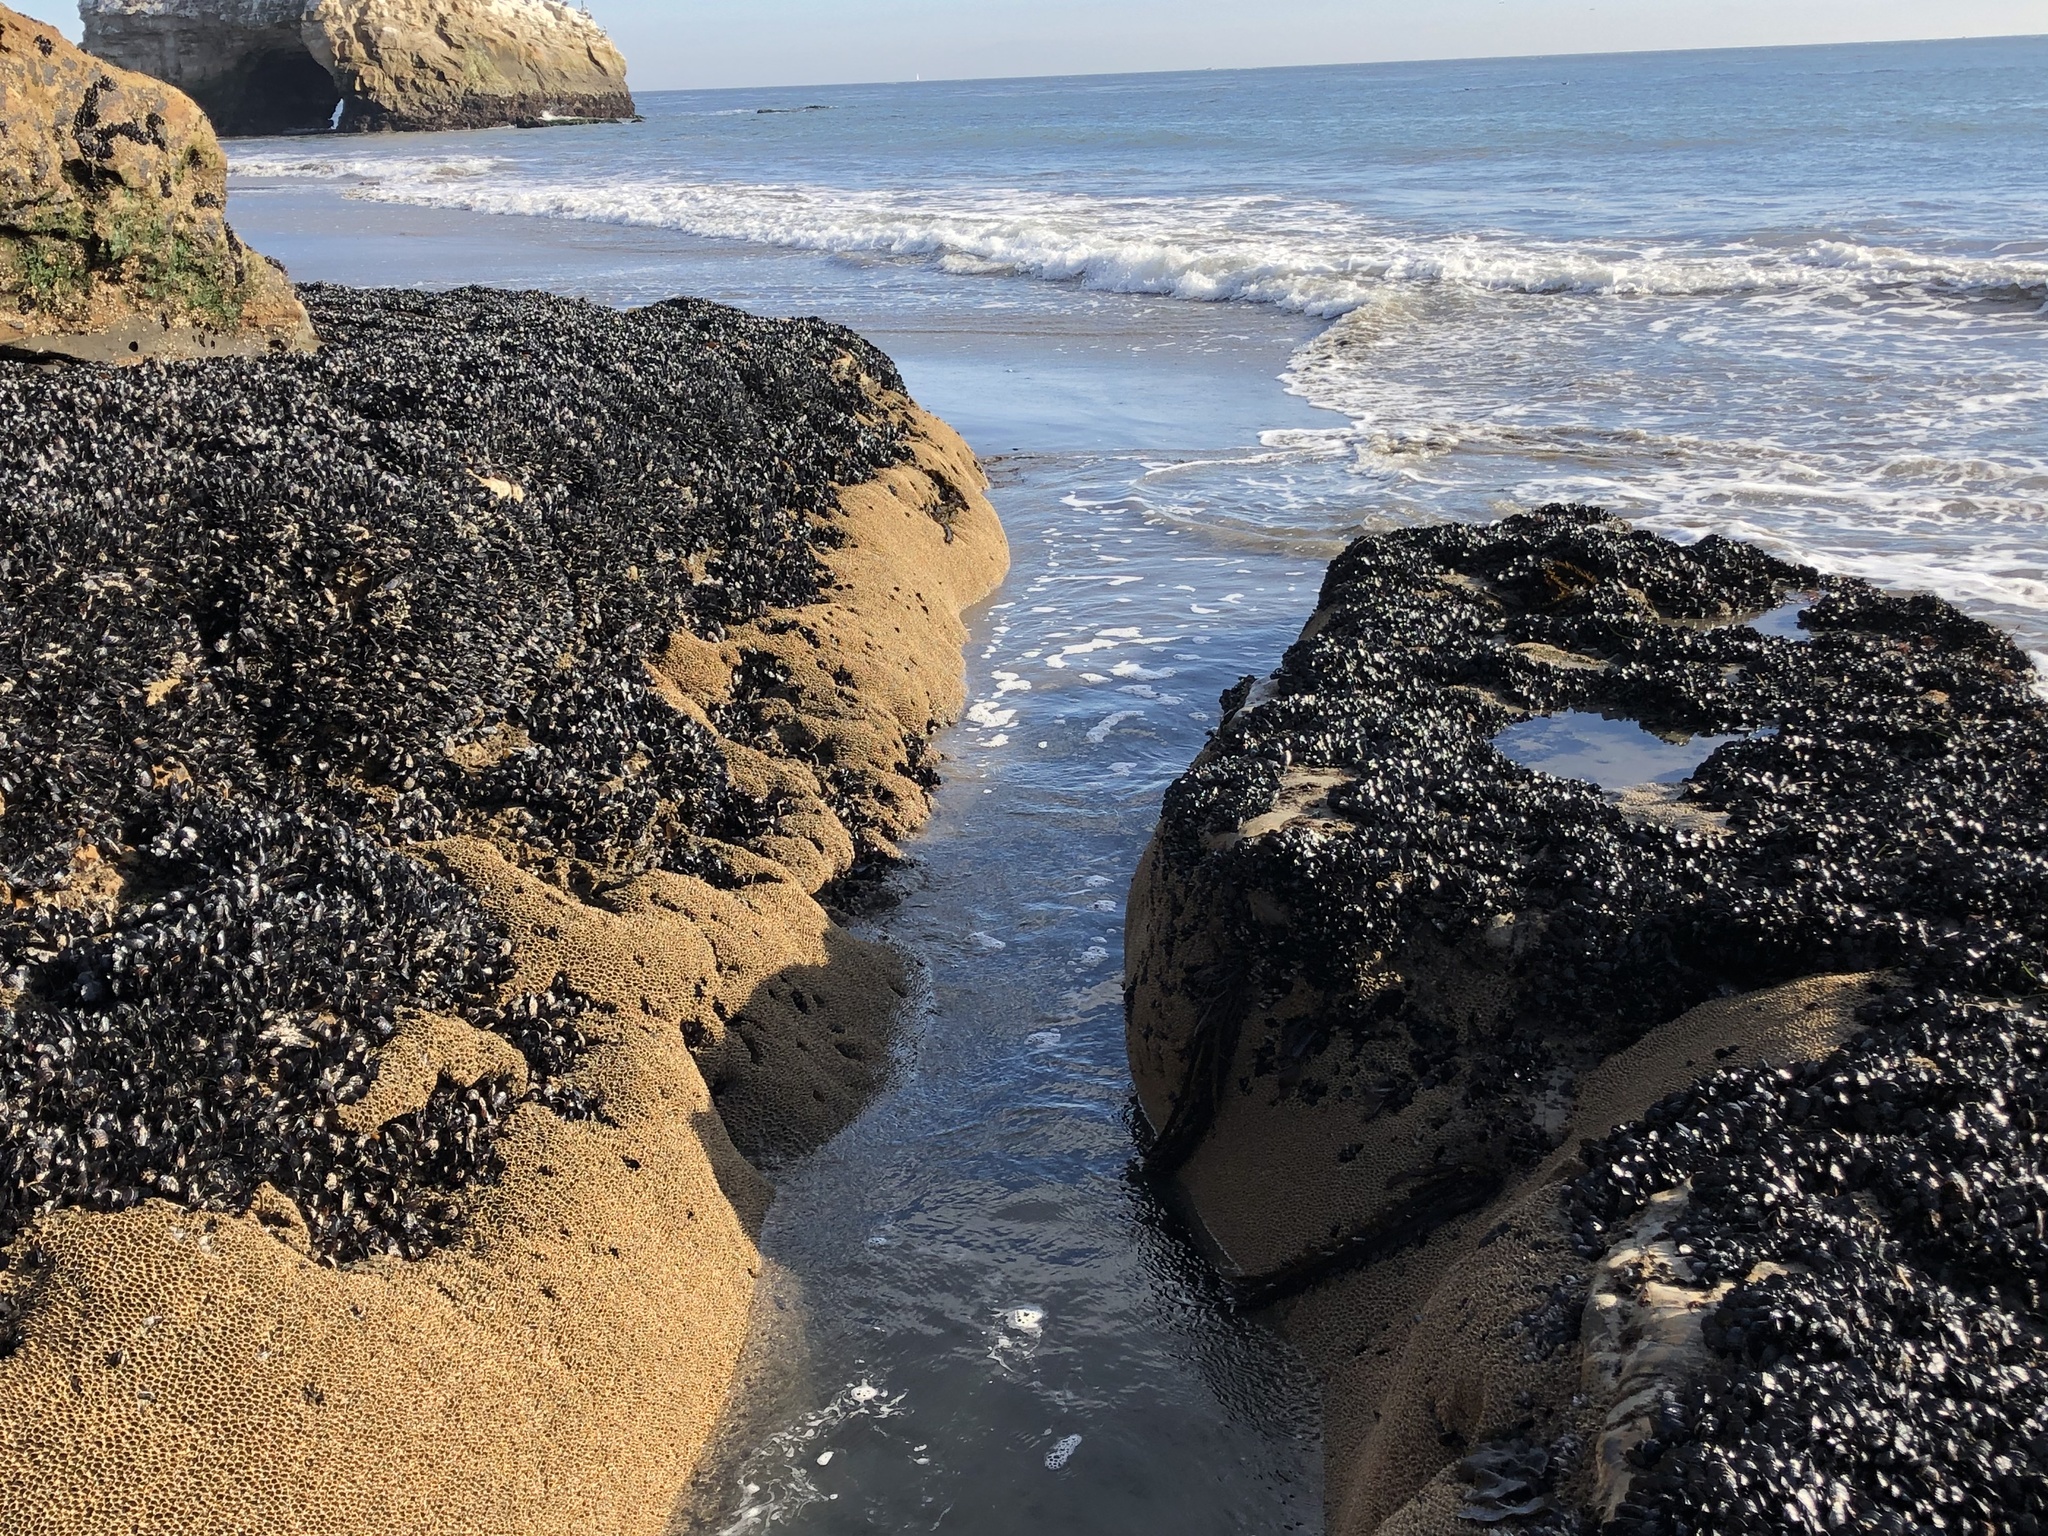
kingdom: Animalia
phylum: Annelida
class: Polychaeta
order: Sabellida
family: Sabellariidae
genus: Phragmatopoma
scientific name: Phragmatopoma californica
